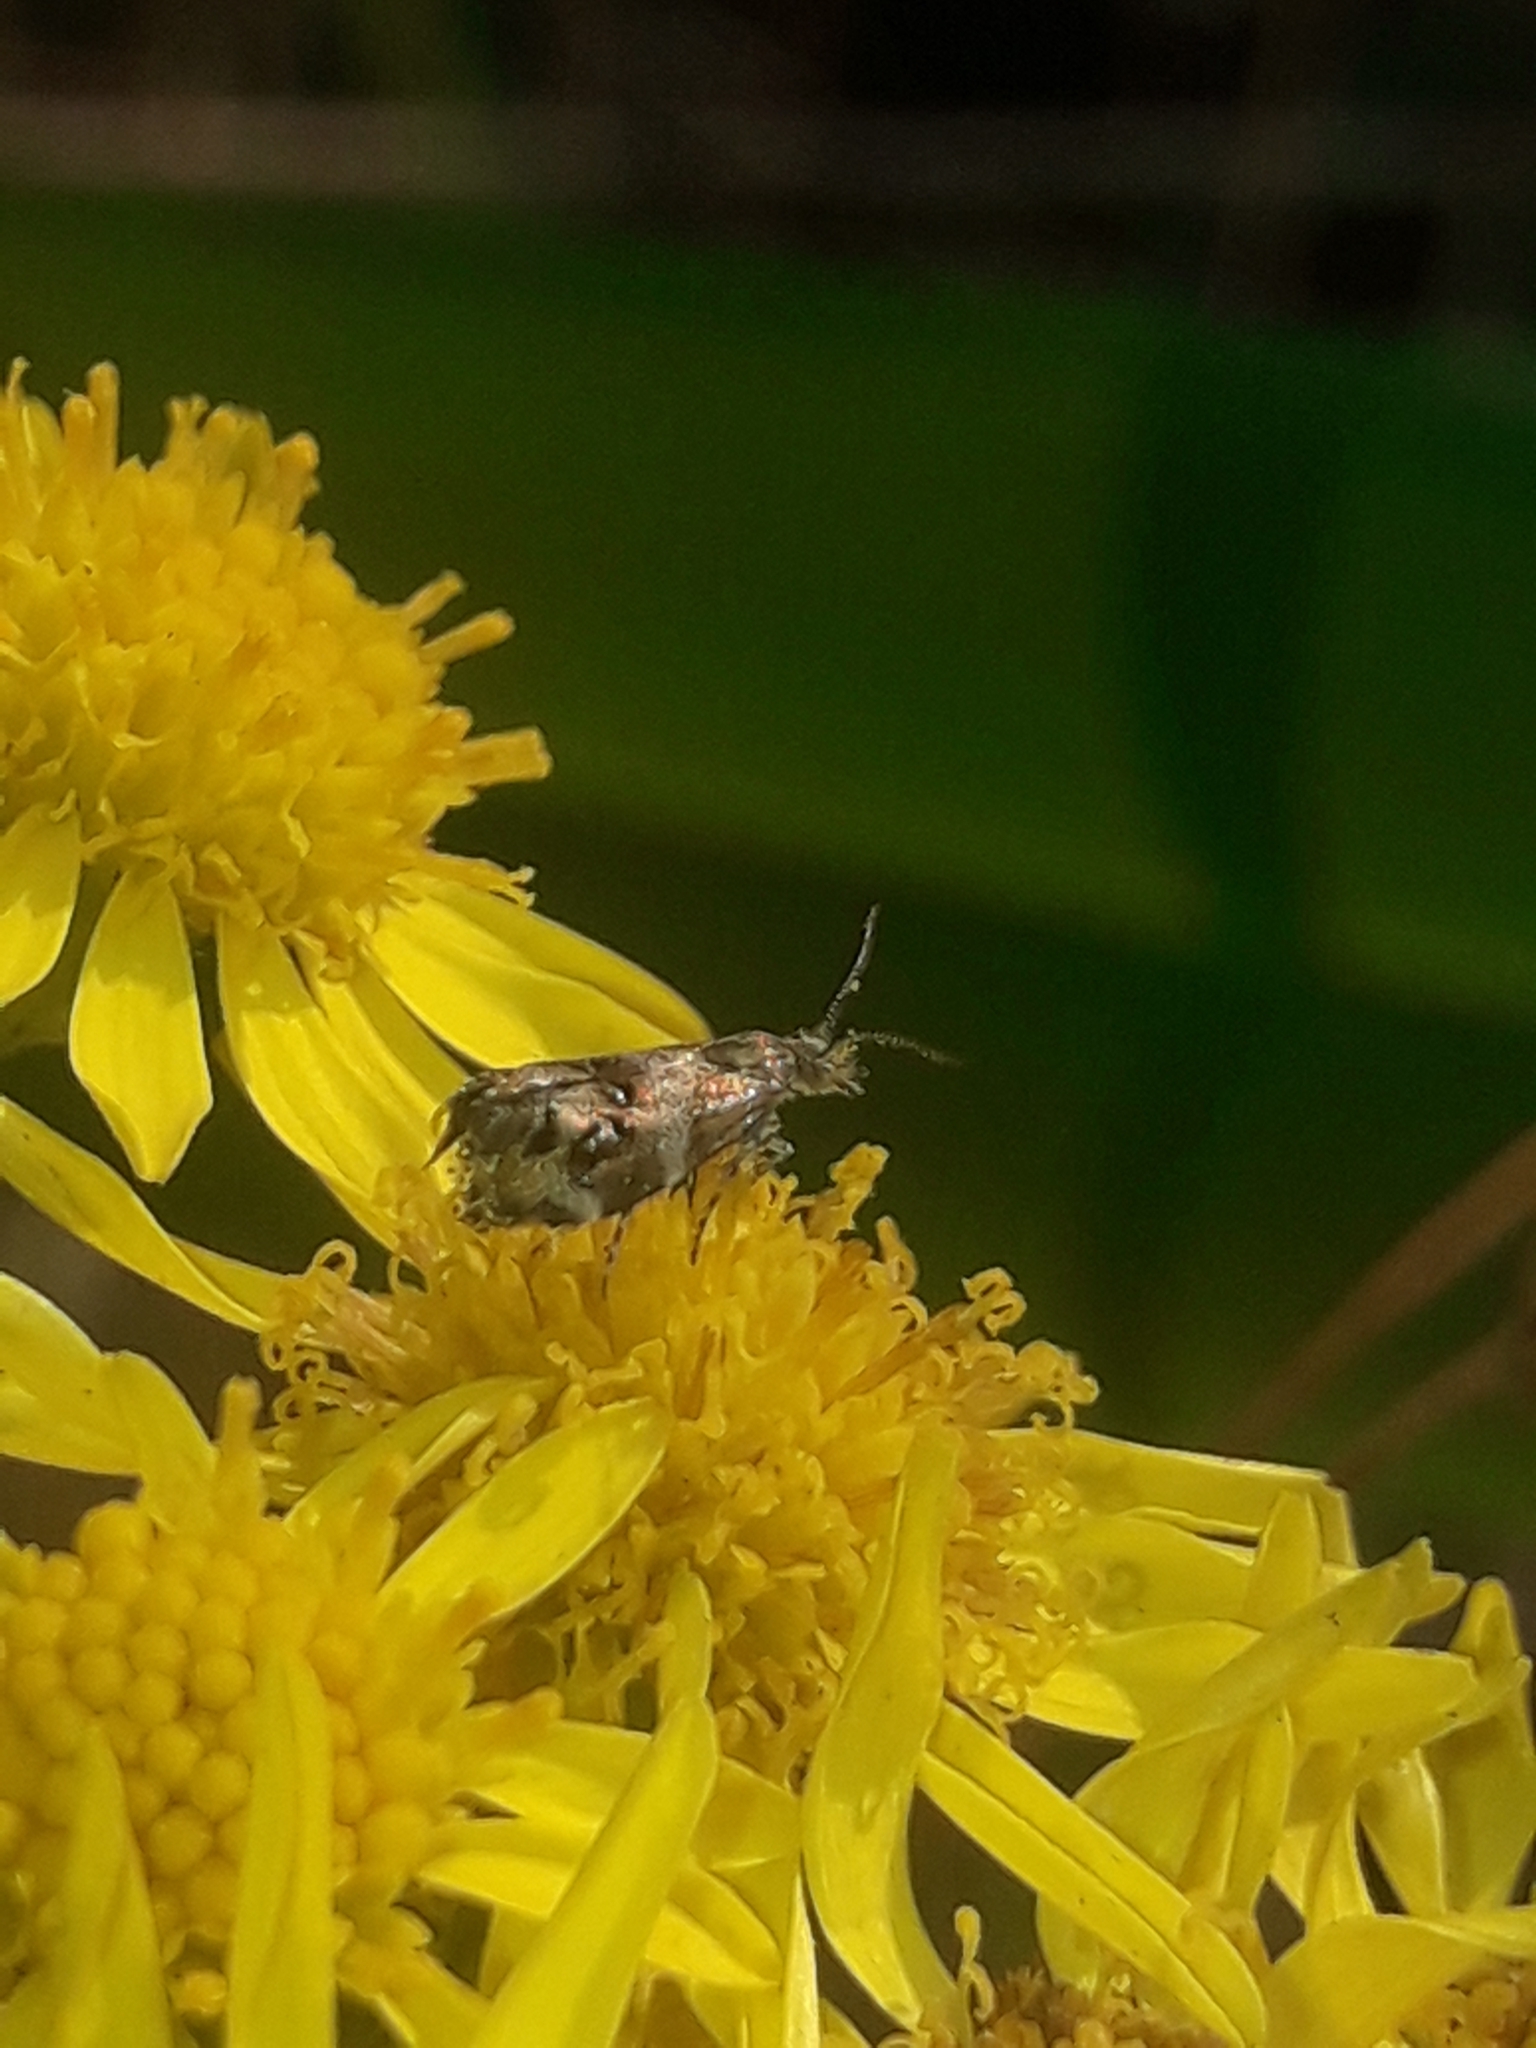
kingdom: Animalia
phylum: Arthropoda
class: Insecta
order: Lepidoptera
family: Choreutidae
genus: Tebenna
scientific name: Tebenna micalis
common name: Vagrant twitcher
